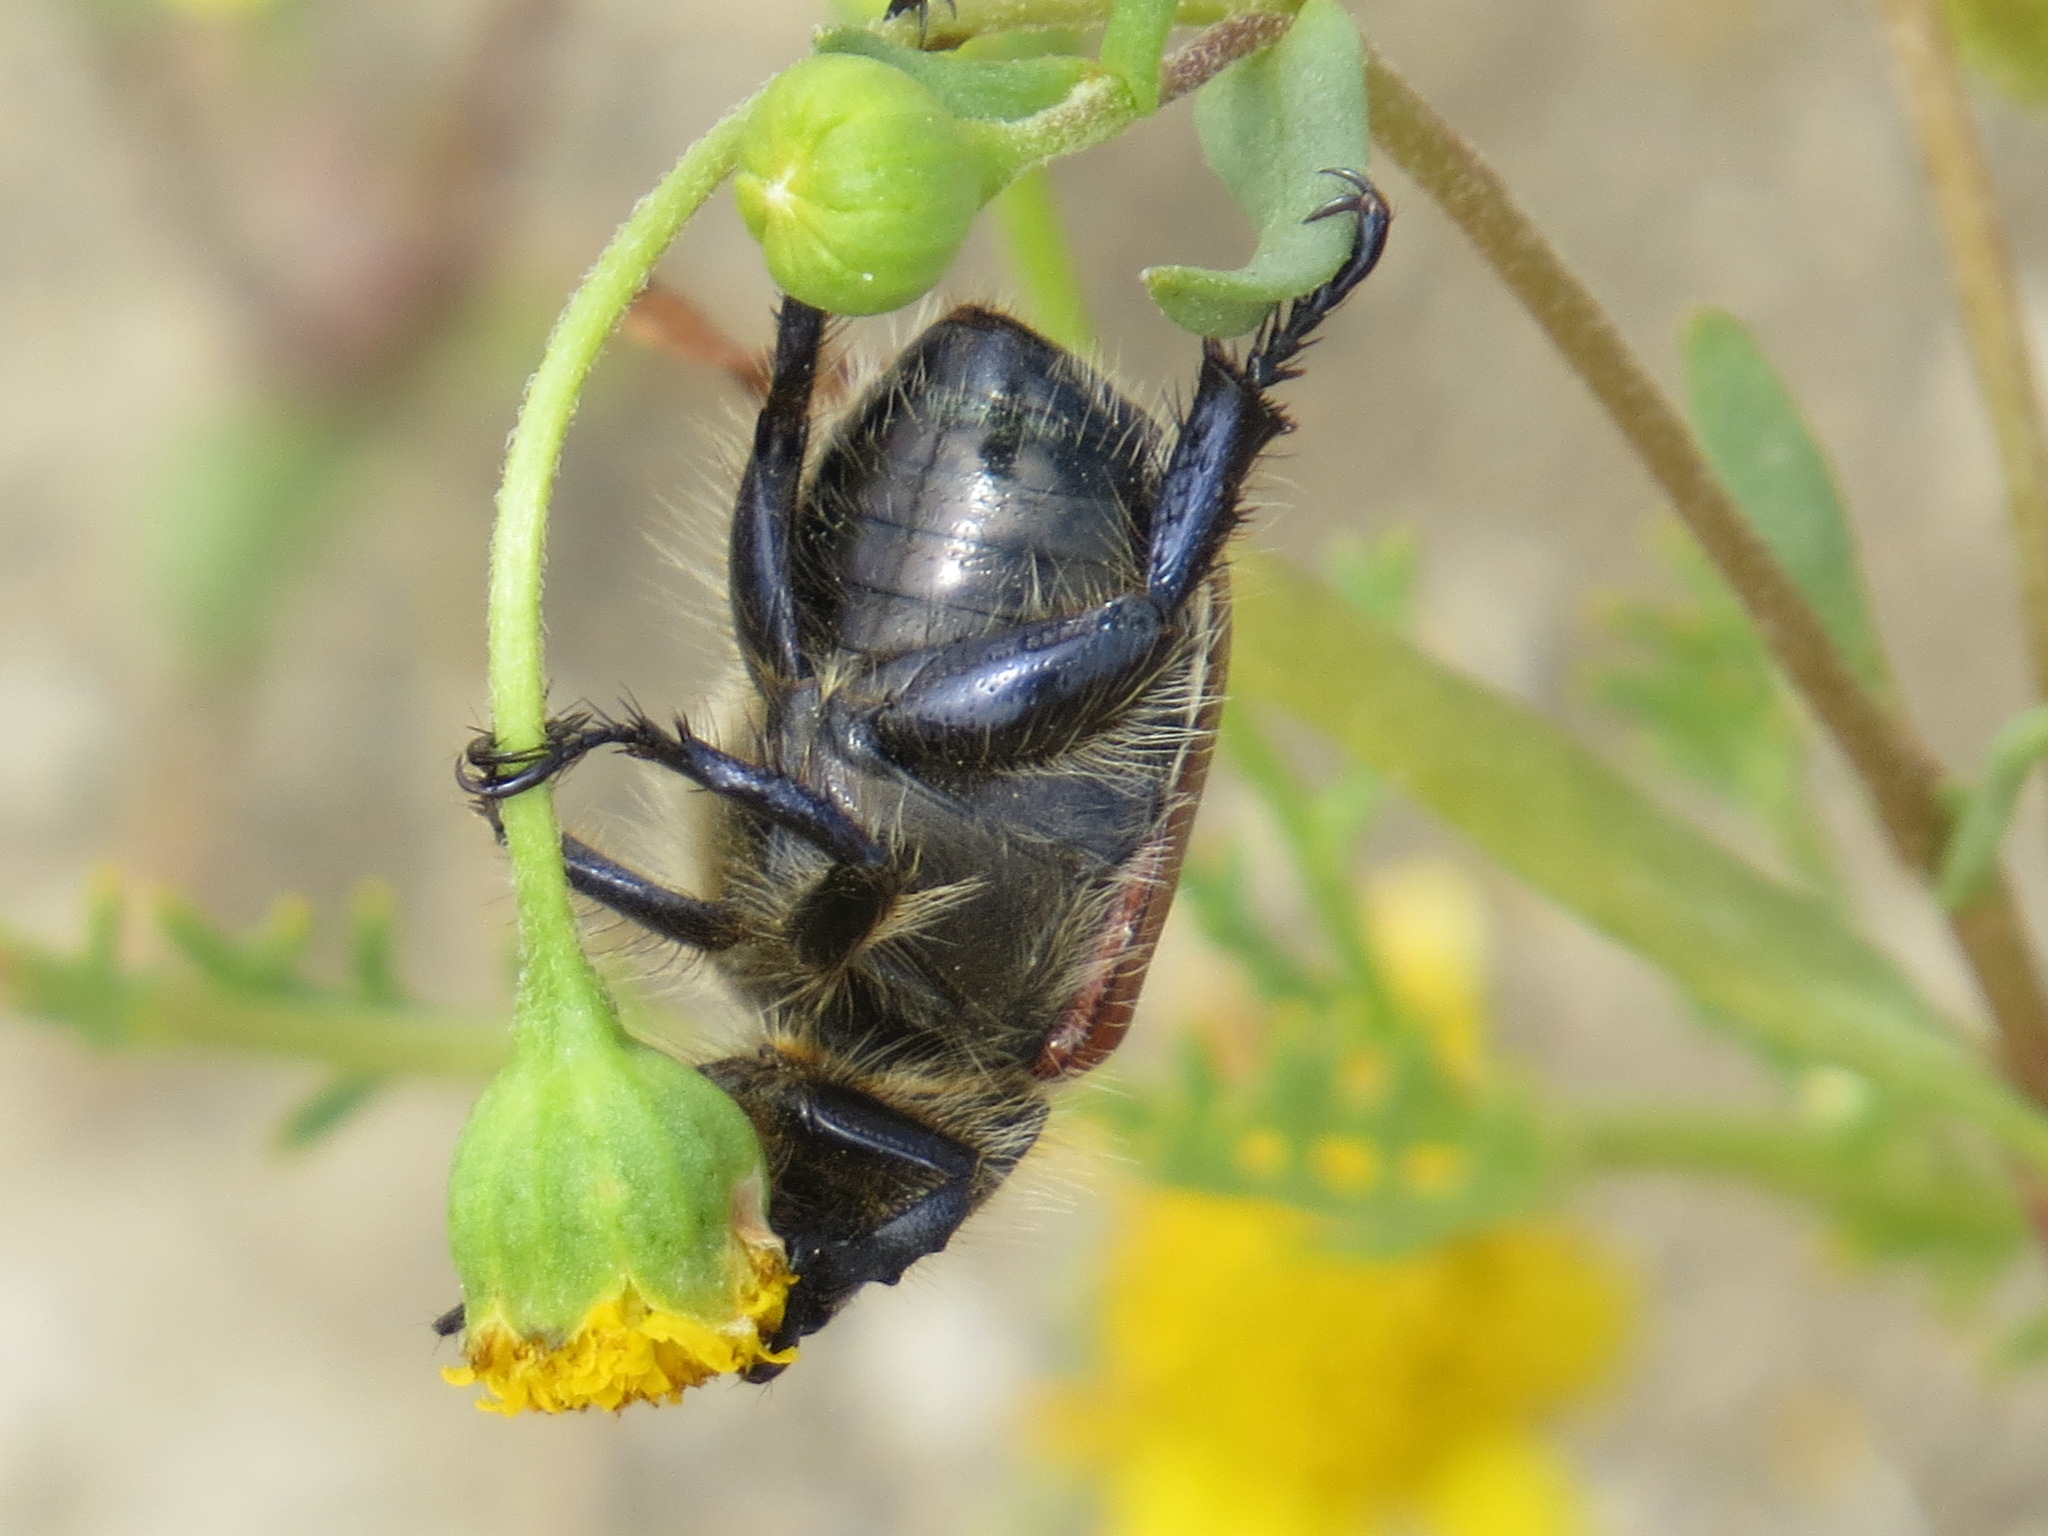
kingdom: Animalia
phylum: Arthropoda
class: Insecta
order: Coleoptera
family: Scarabaeidae
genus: Paracotalpa
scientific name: Paracotalpa ursina
